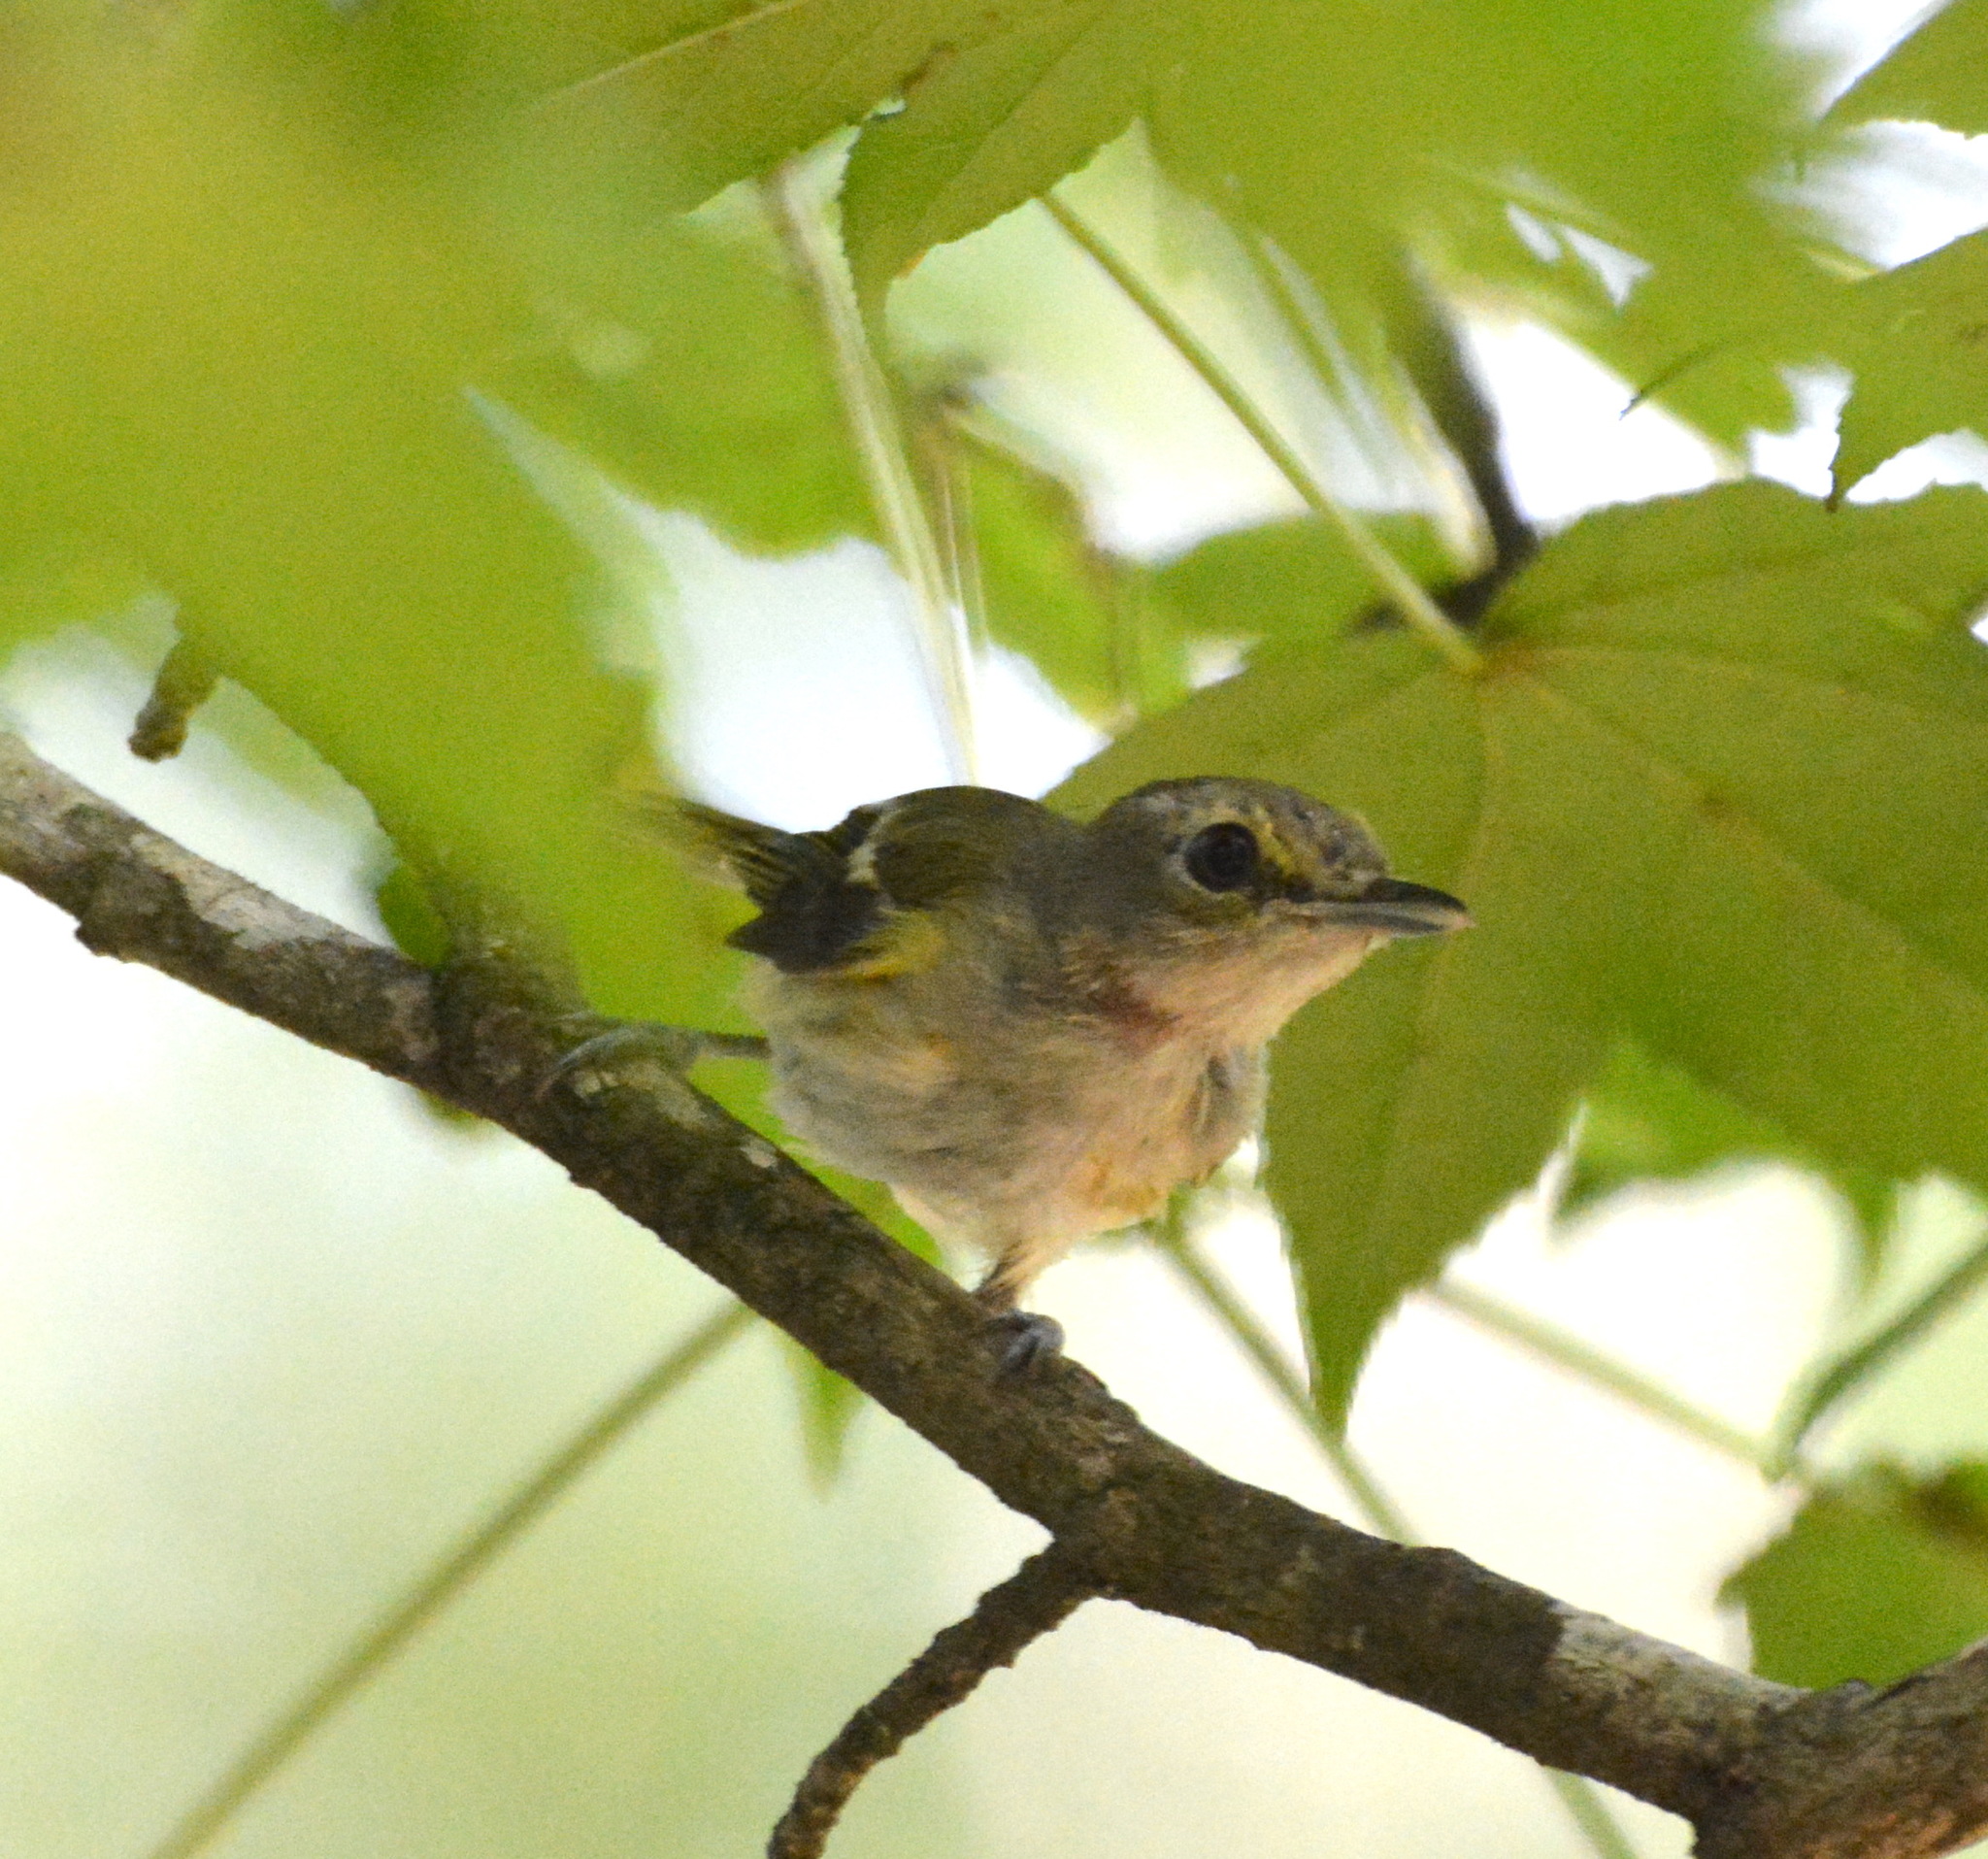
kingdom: Animalia
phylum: Chordata
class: Aves
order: Passeriformes
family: Vireonidae
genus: Vireo
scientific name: Vireo griseus
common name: White-eyed vireo
